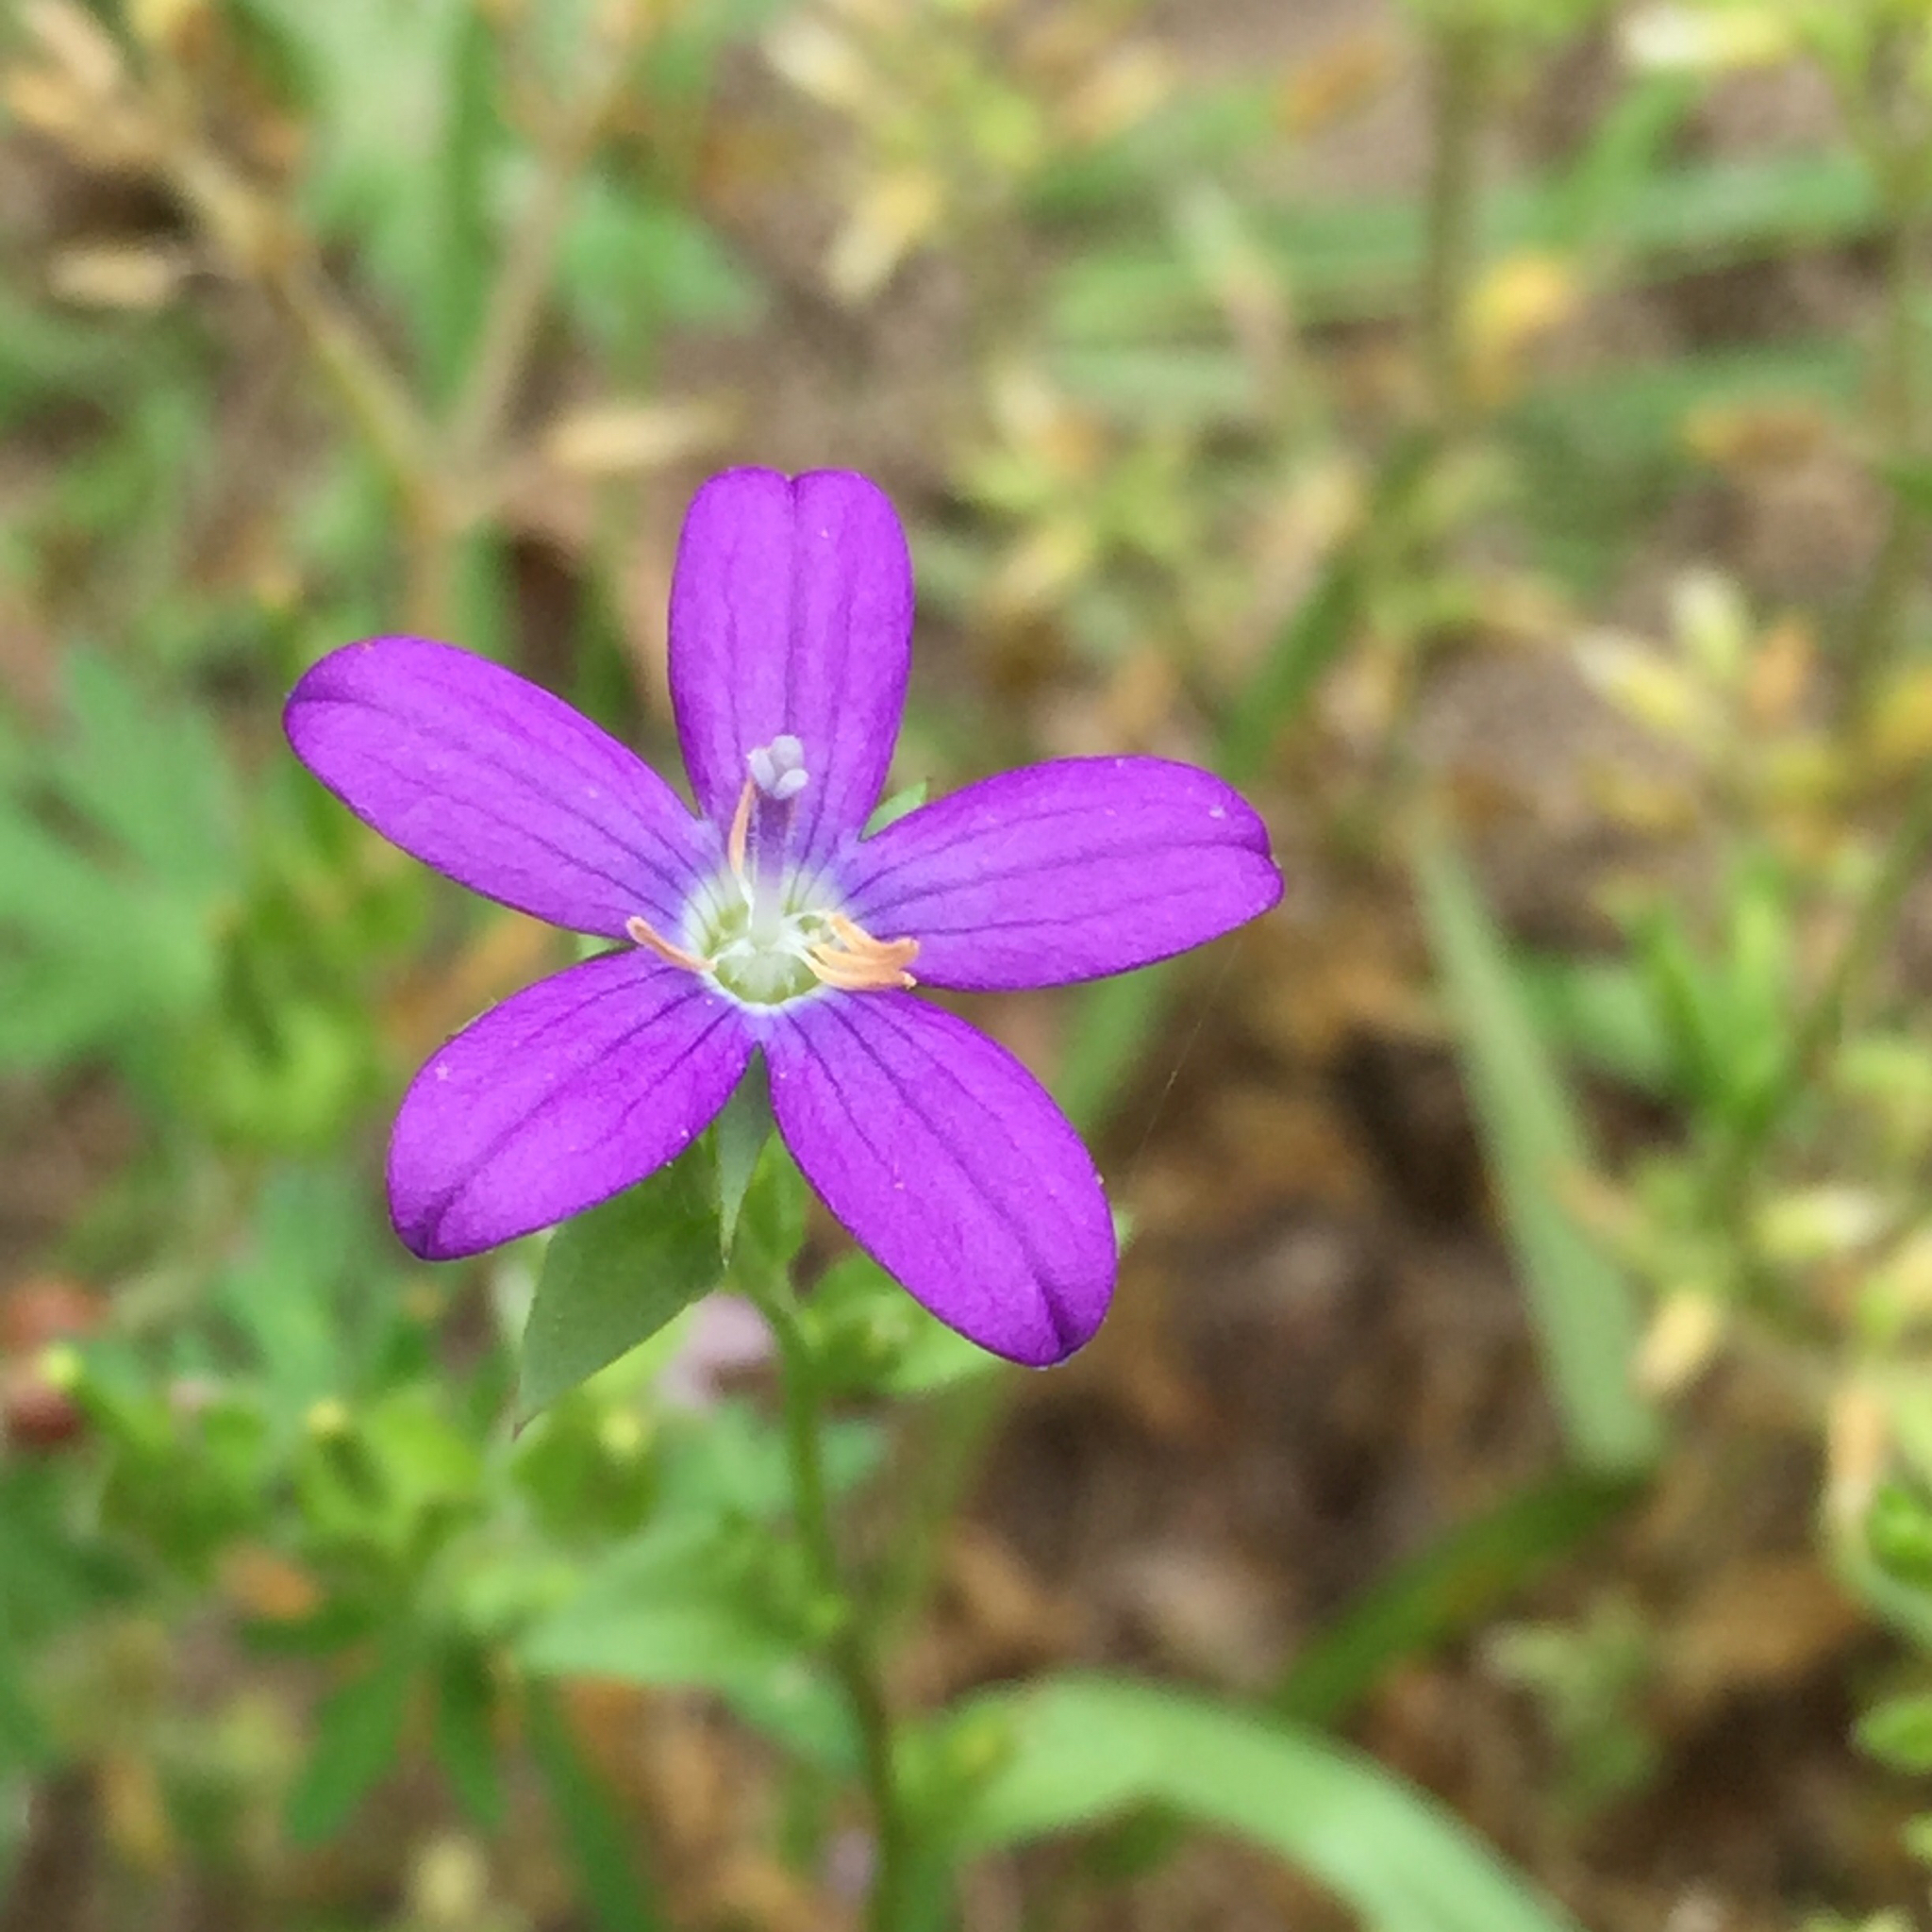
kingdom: Plantae
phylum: Tracheophyta
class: Magnoliopsida
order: Asterales
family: Campanulaceae
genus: Triodanis
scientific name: Triodanis perfoliata
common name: Clasping venus' looking-glass
